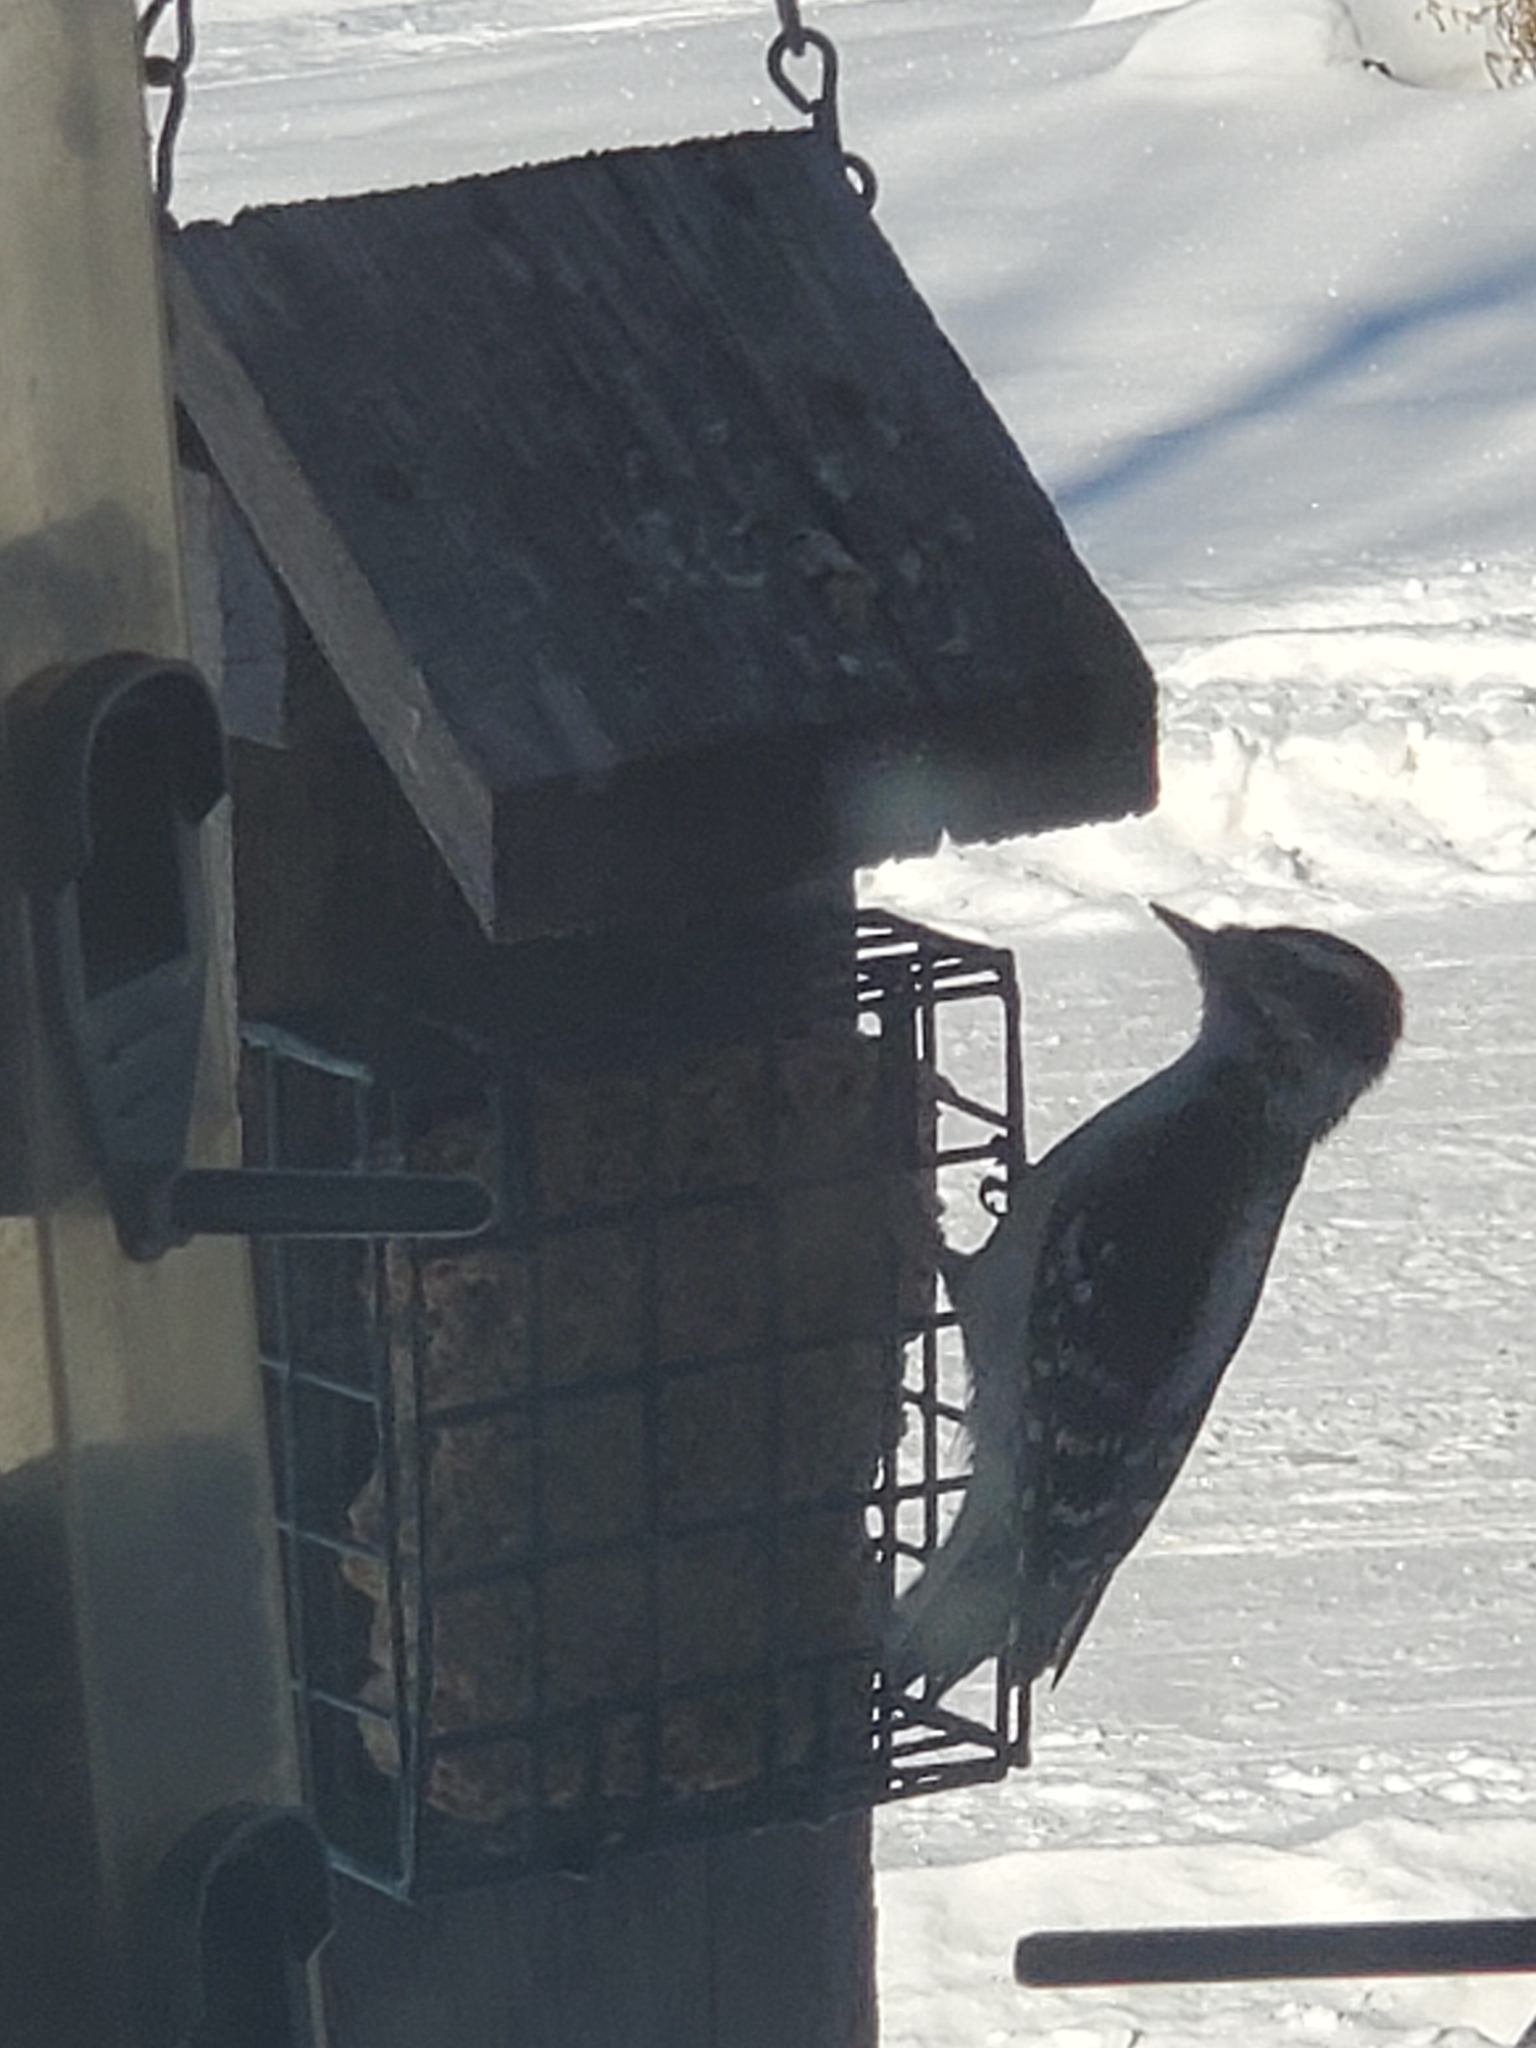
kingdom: Animalia
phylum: Chordata
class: Aves
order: Piciformes
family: Picidae
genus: Dryobates
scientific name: Dryobates pubescens
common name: Downy woodpecker
